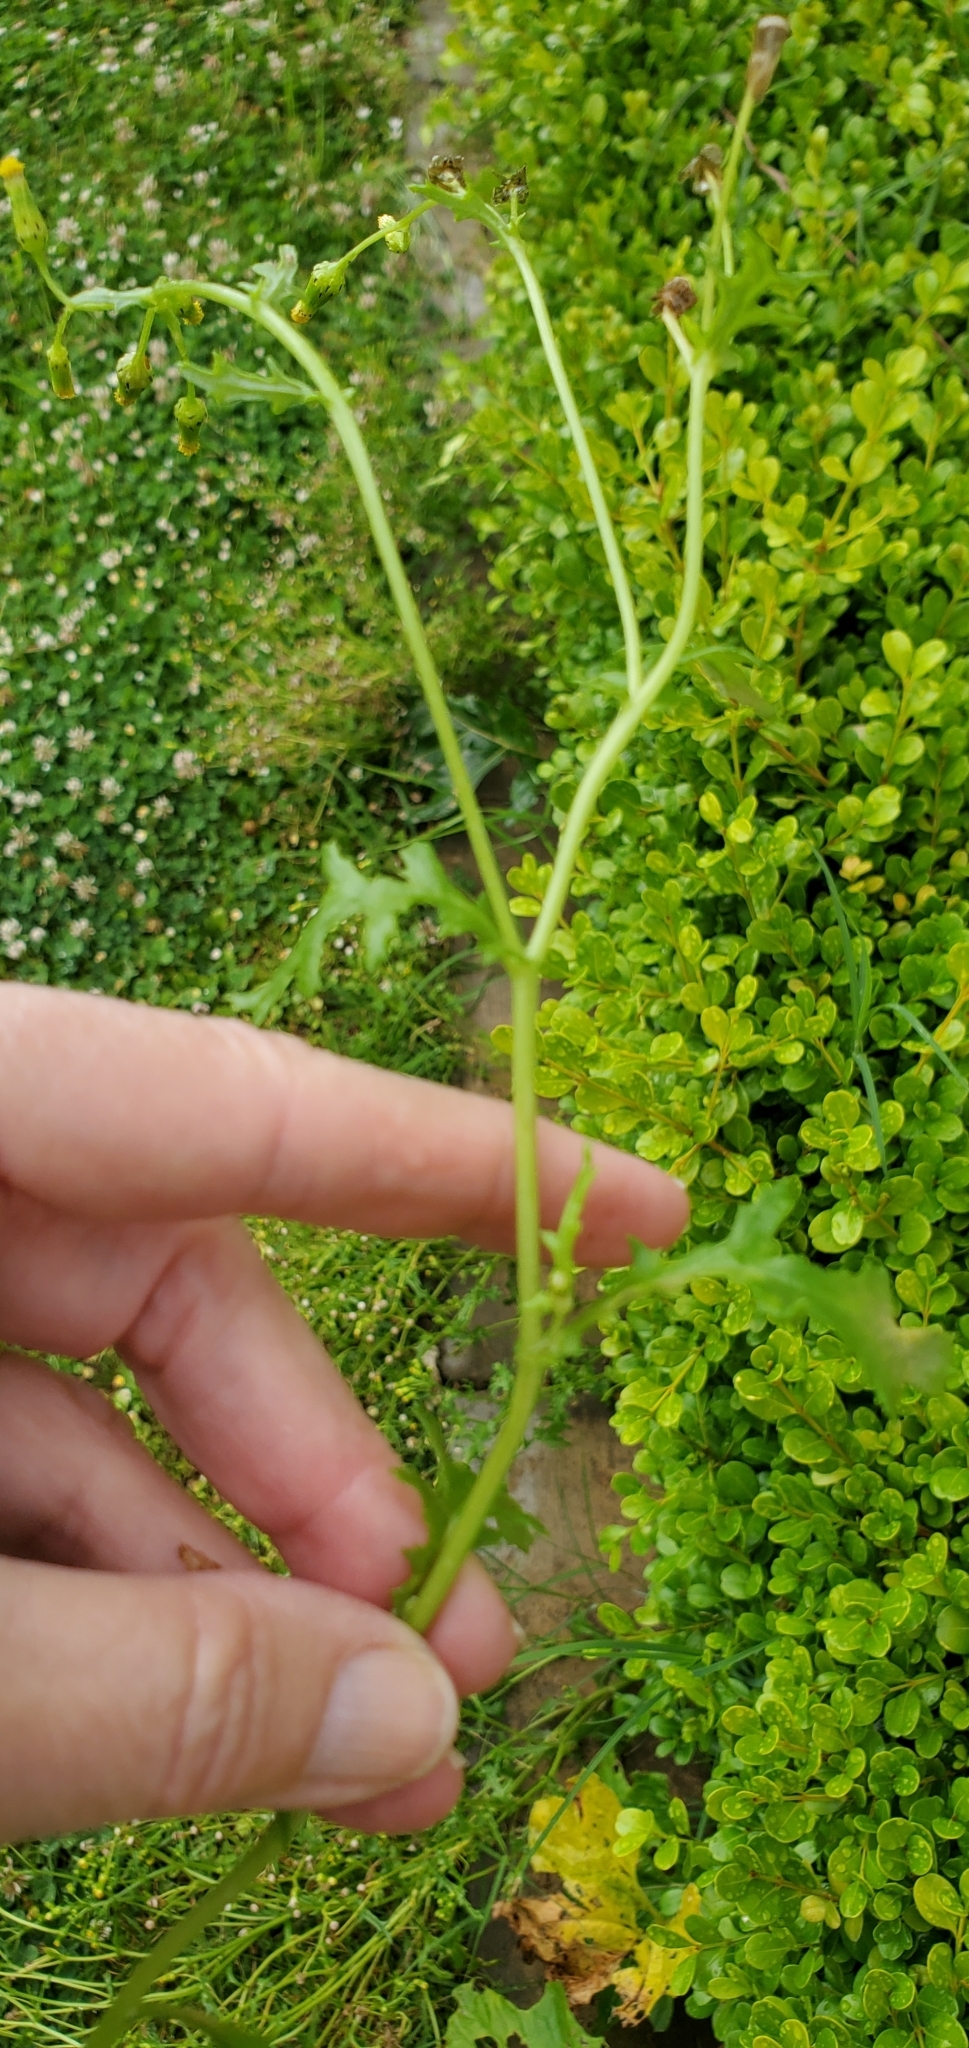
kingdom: Plantae
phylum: Tracheophyta
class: Magnoliopsida
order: Asterales
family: Asteraceae
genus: Senecio
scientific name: Senecio vulgaris
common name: Old-man-in-the-spring
